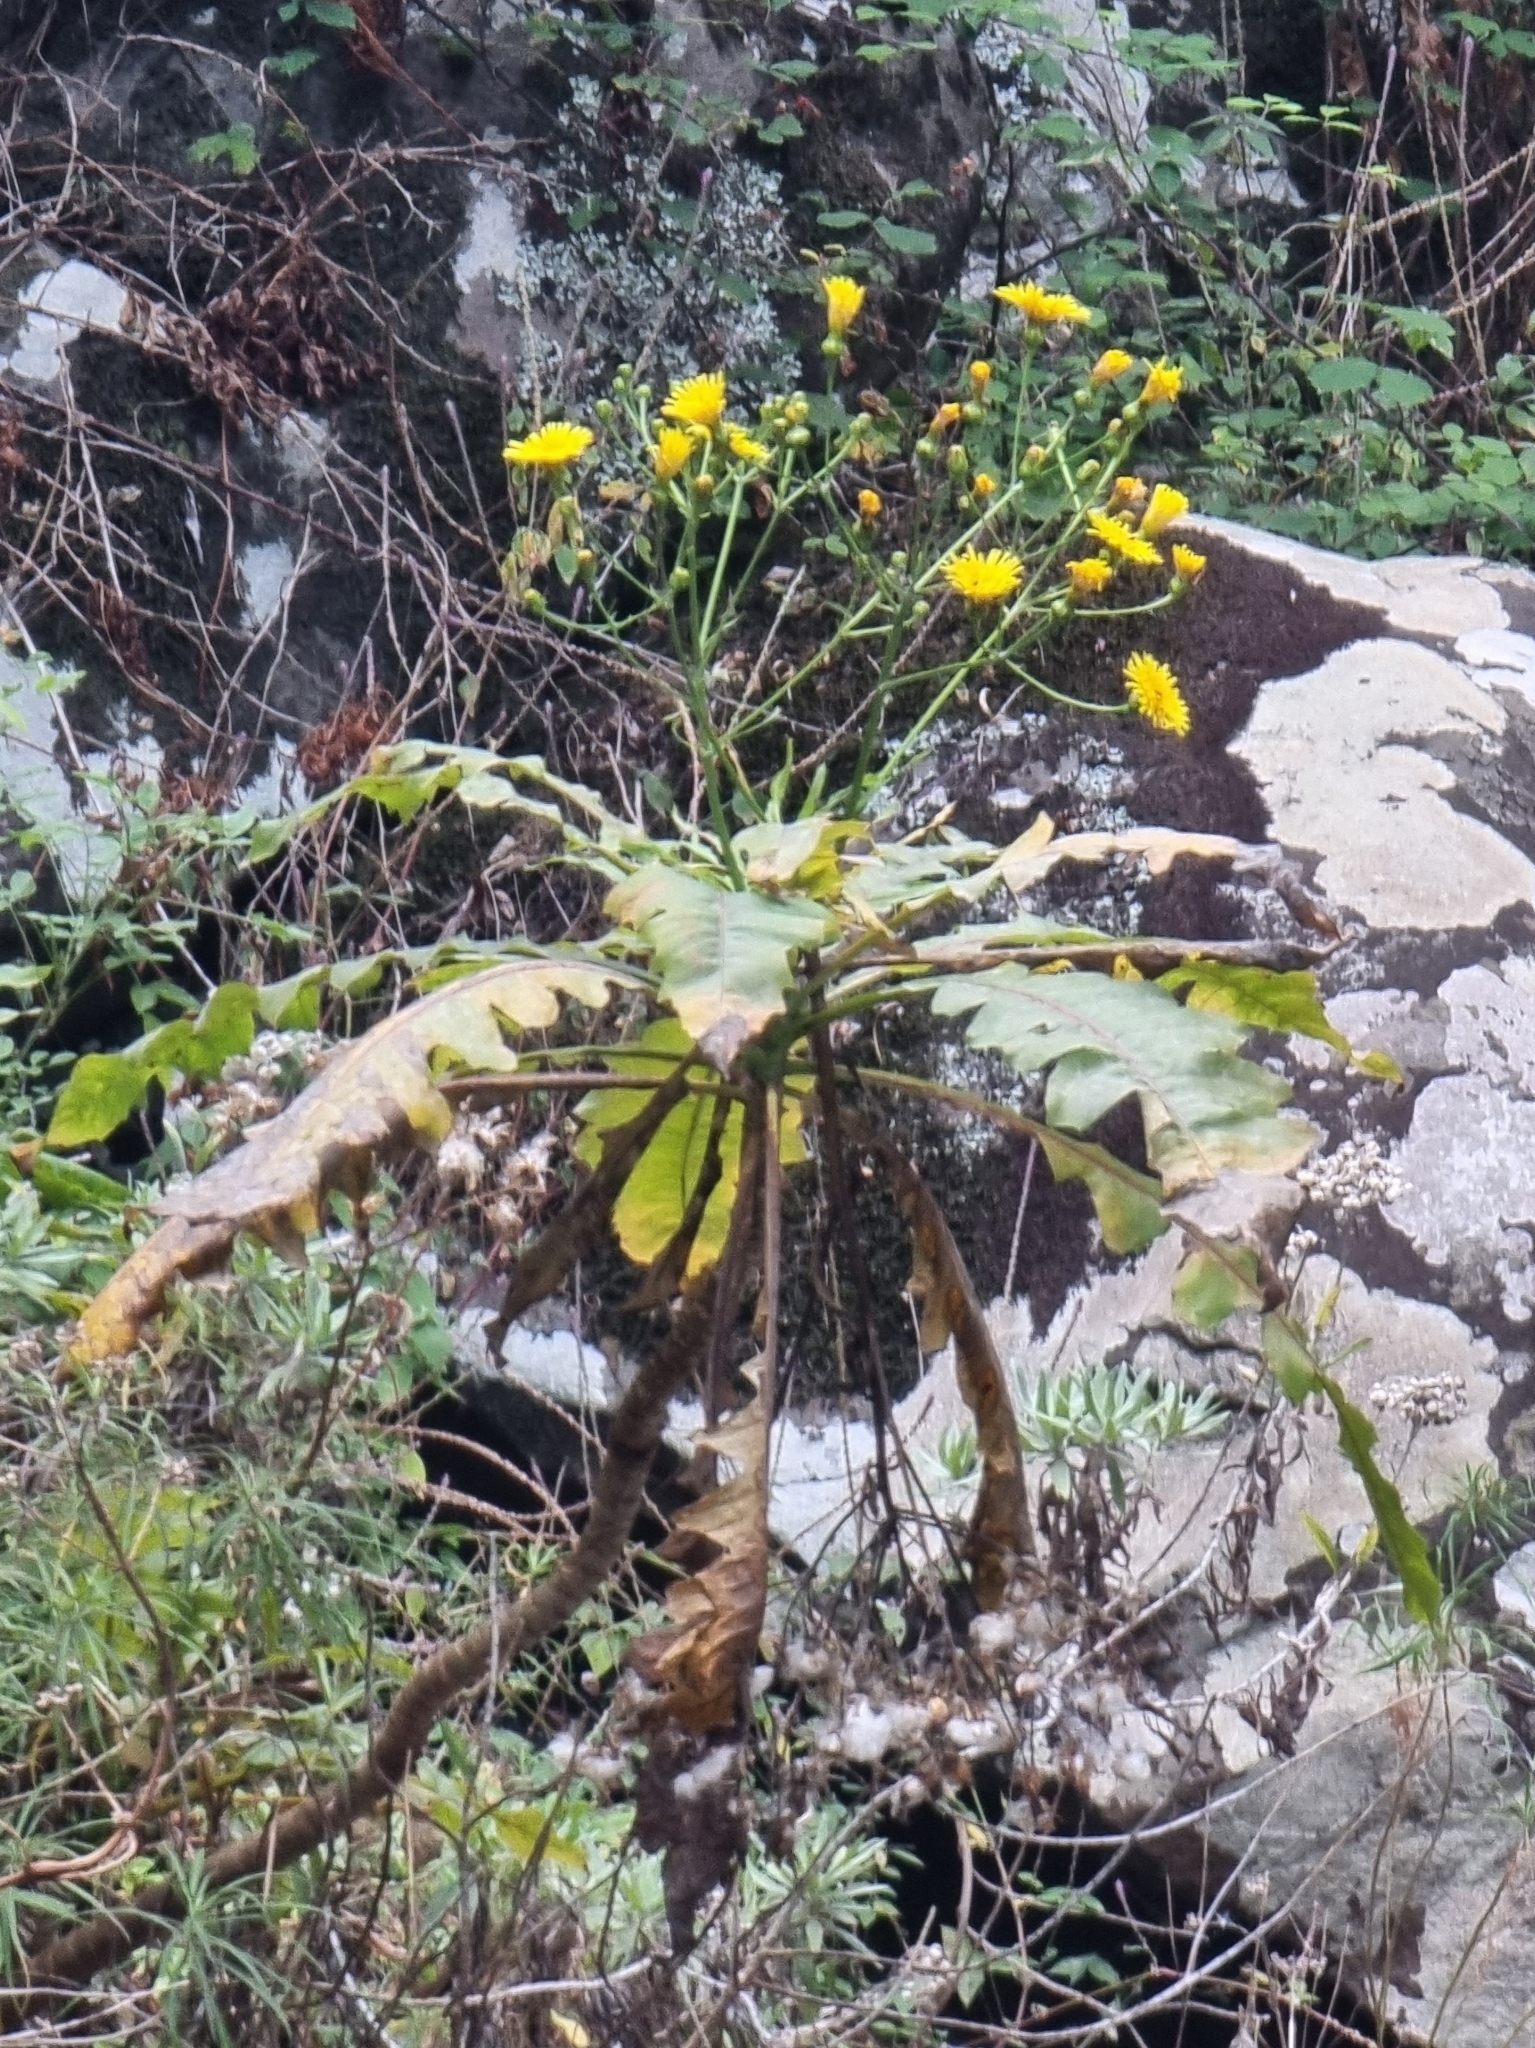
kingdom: Plantae
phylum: Tracheophyta
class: Magnoliopsida
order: Asterales
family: Asteraceae
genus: Sonchus
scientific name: Sonchus fruticosus
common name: Shrubby sow-thistle
